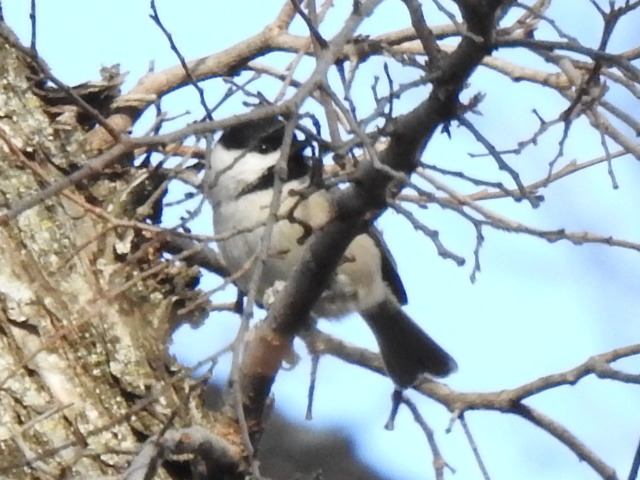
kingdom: Animalia
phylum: Chordata
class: Aves
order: Passeriformes
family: Paridae
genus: Poecile
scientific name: Poecile carolinensis
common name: Carolina chickadee
